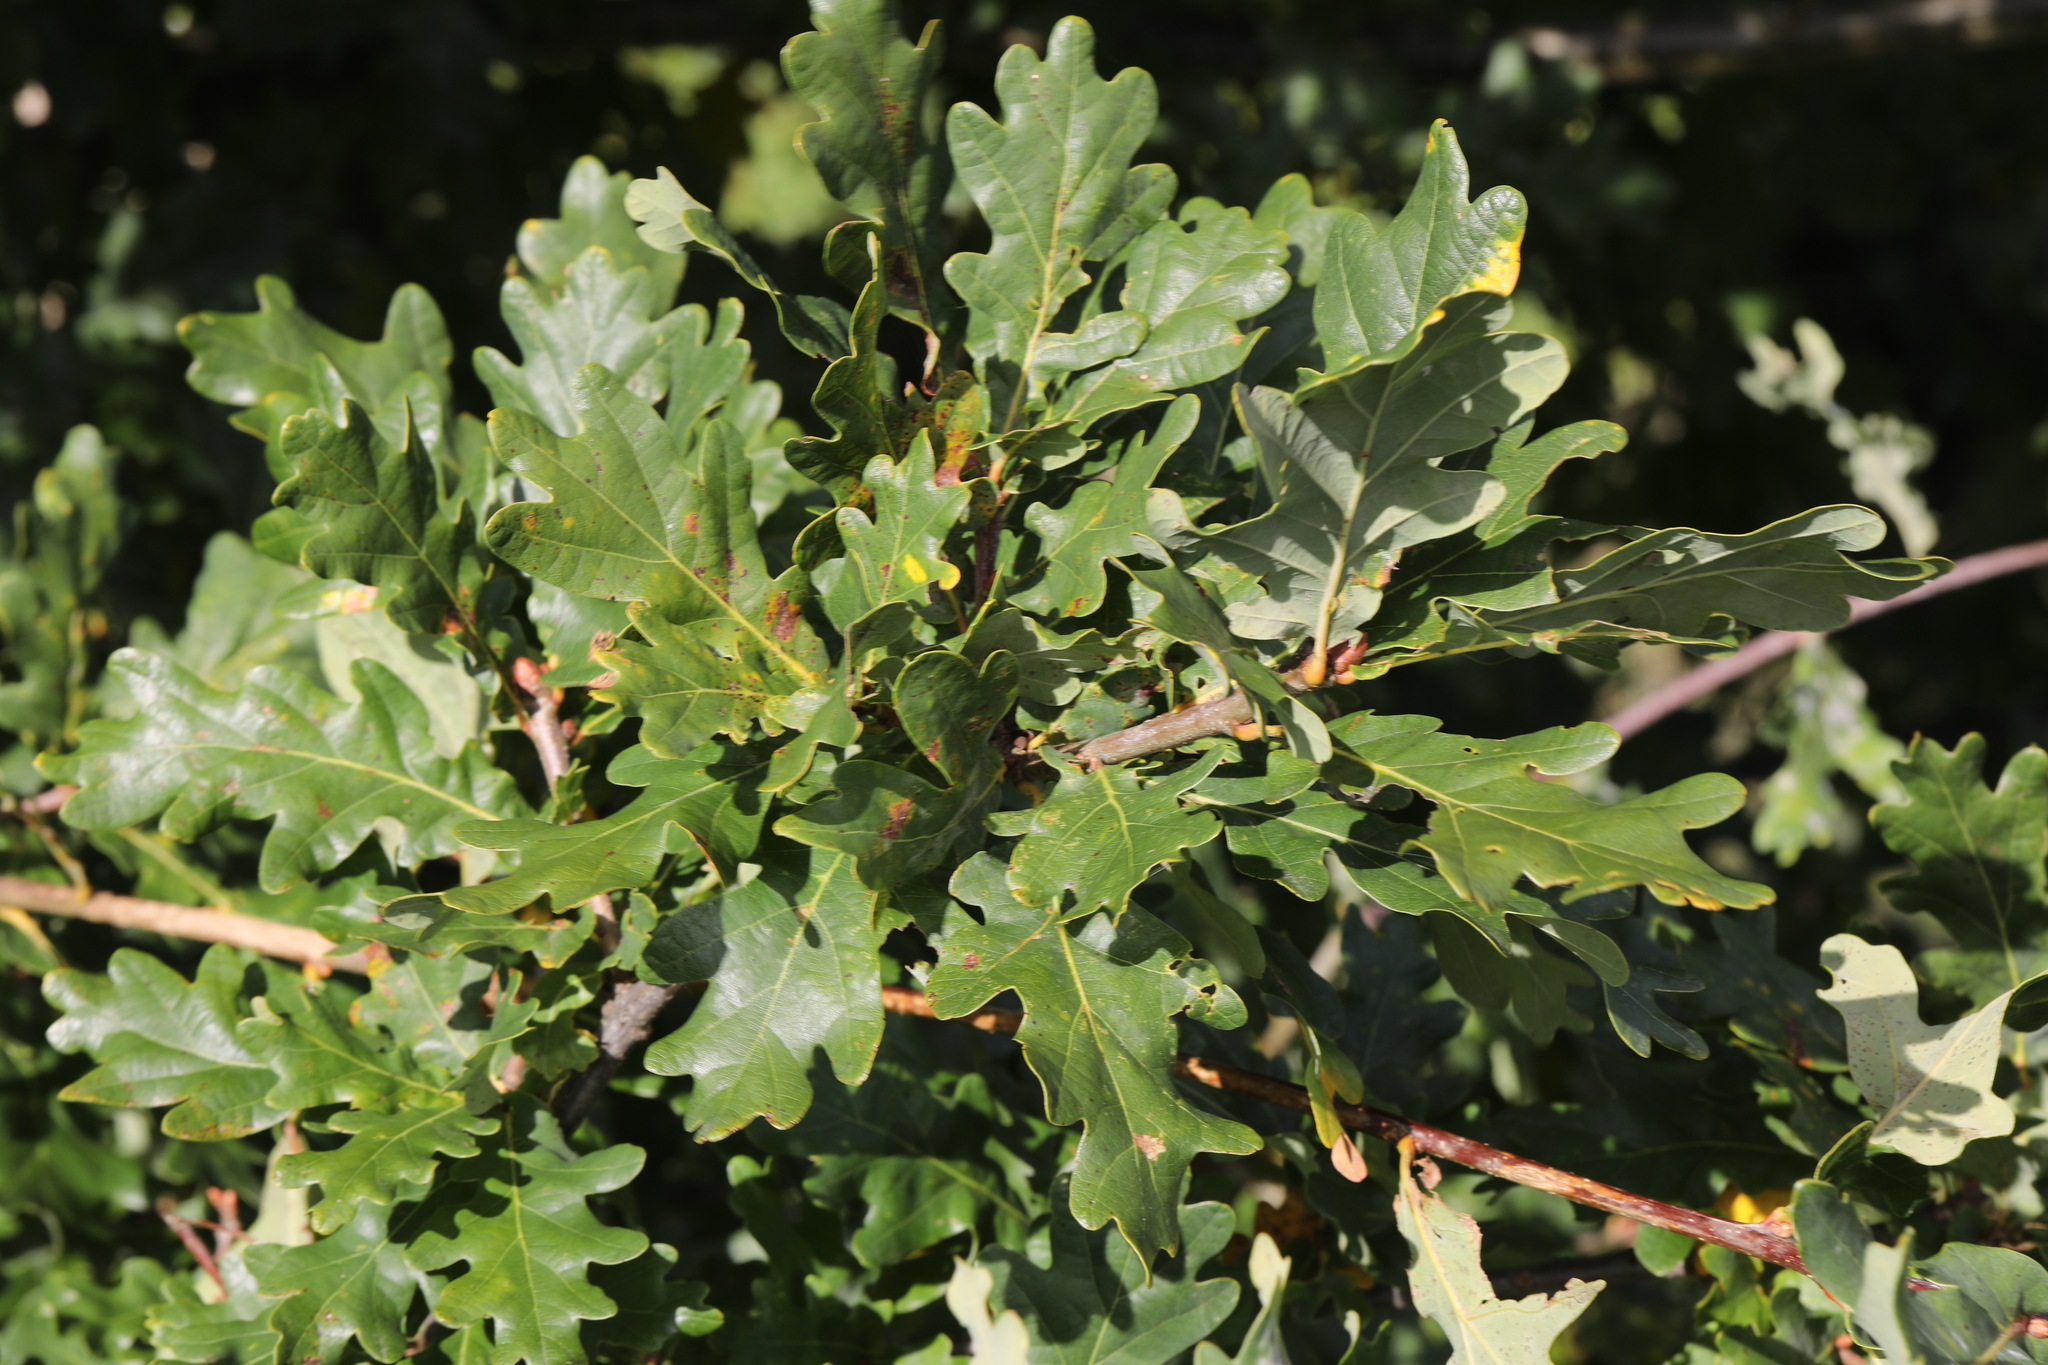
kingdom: Plantae
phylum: Tracheophyta
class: Magnoliopsida
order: Fagales
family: Fagaceae
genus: Quercus
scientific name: Quercus robur
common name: Pedunculate oak
